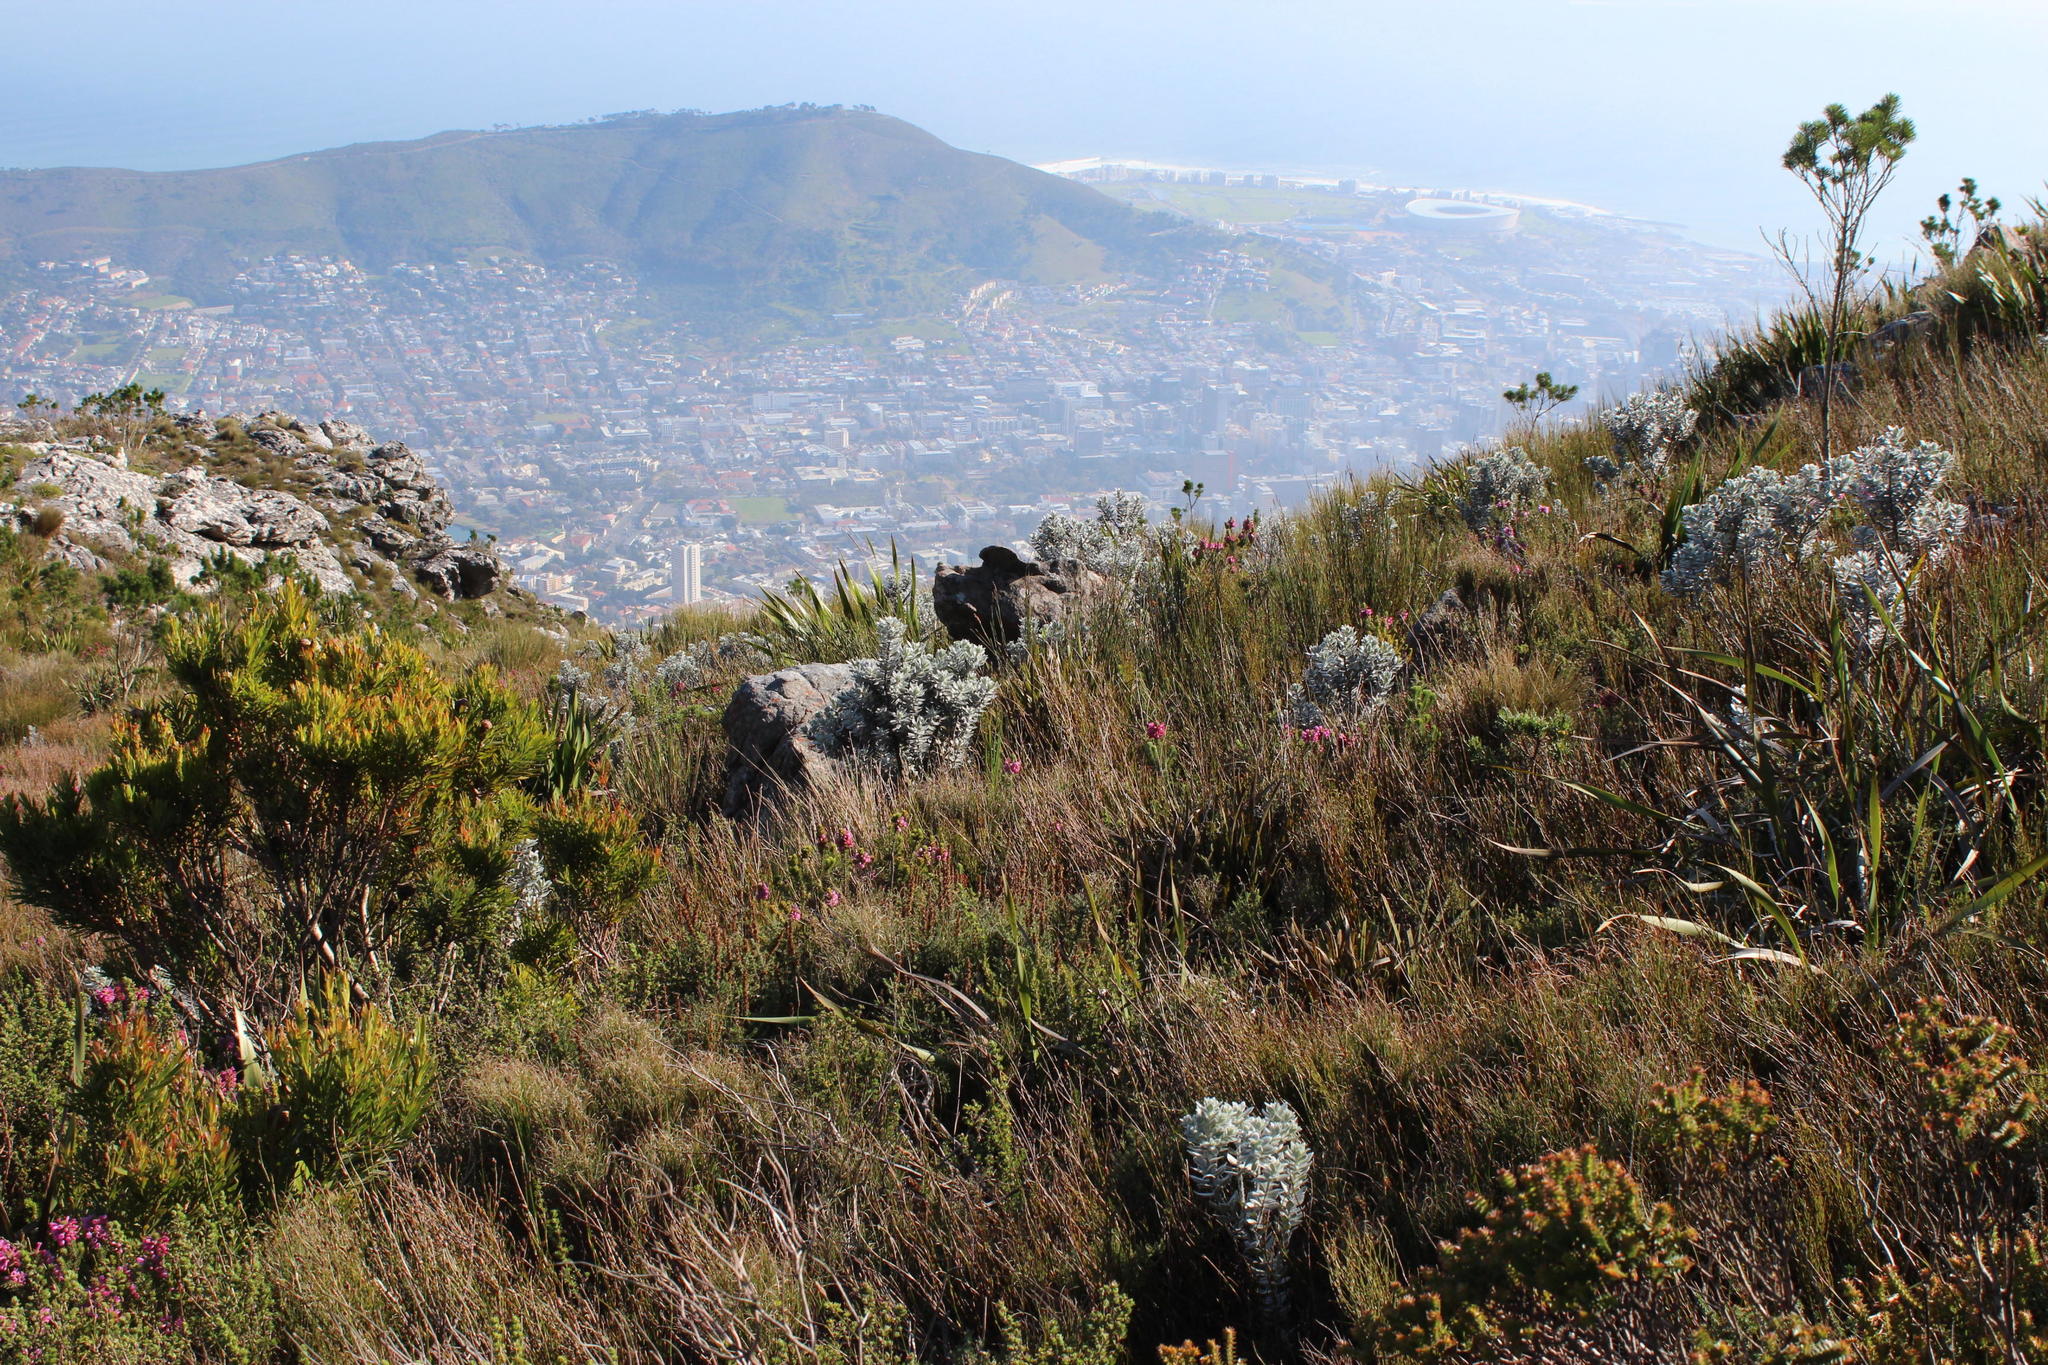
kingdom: Plantae
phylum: Tracheophyta
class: Magnoliopsida
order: Fabales
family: Fabaceae
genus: Xiphotheca
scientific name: Xiphotheca fruticosa
